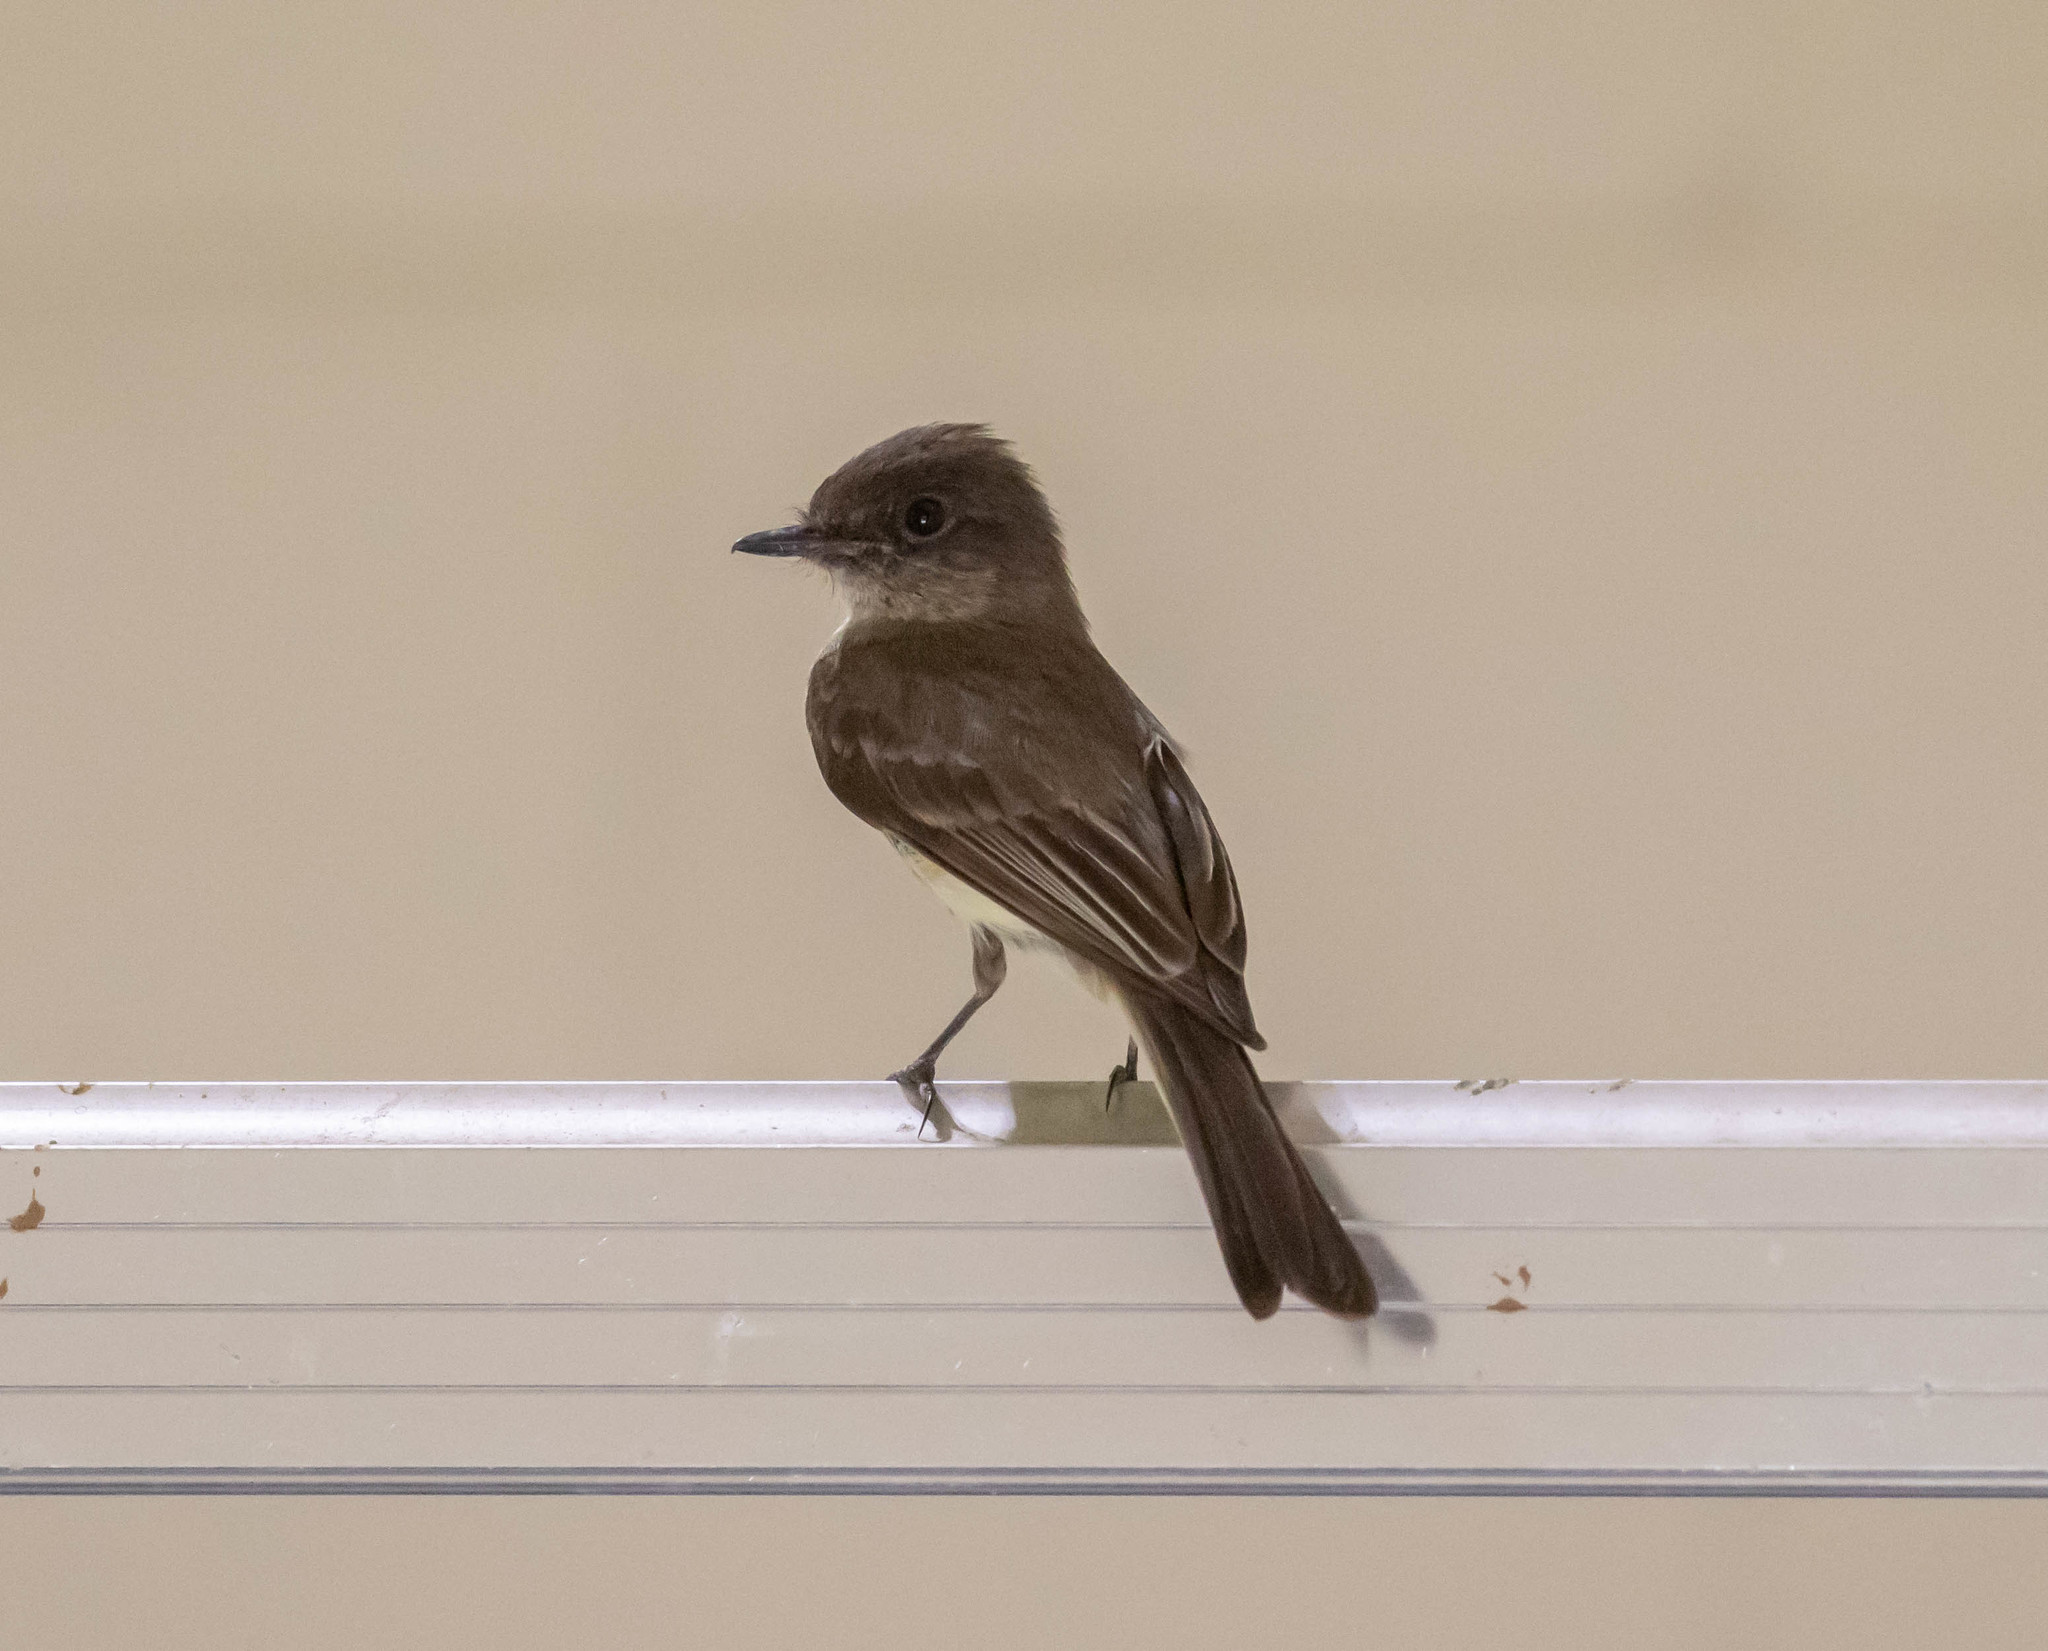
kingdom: Animalia
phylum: Chordata
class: Aves
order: Passeriformes
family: Tyrannidae
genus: Sayornis
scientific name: Sayornis phoebe
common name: Eastern phoebe
